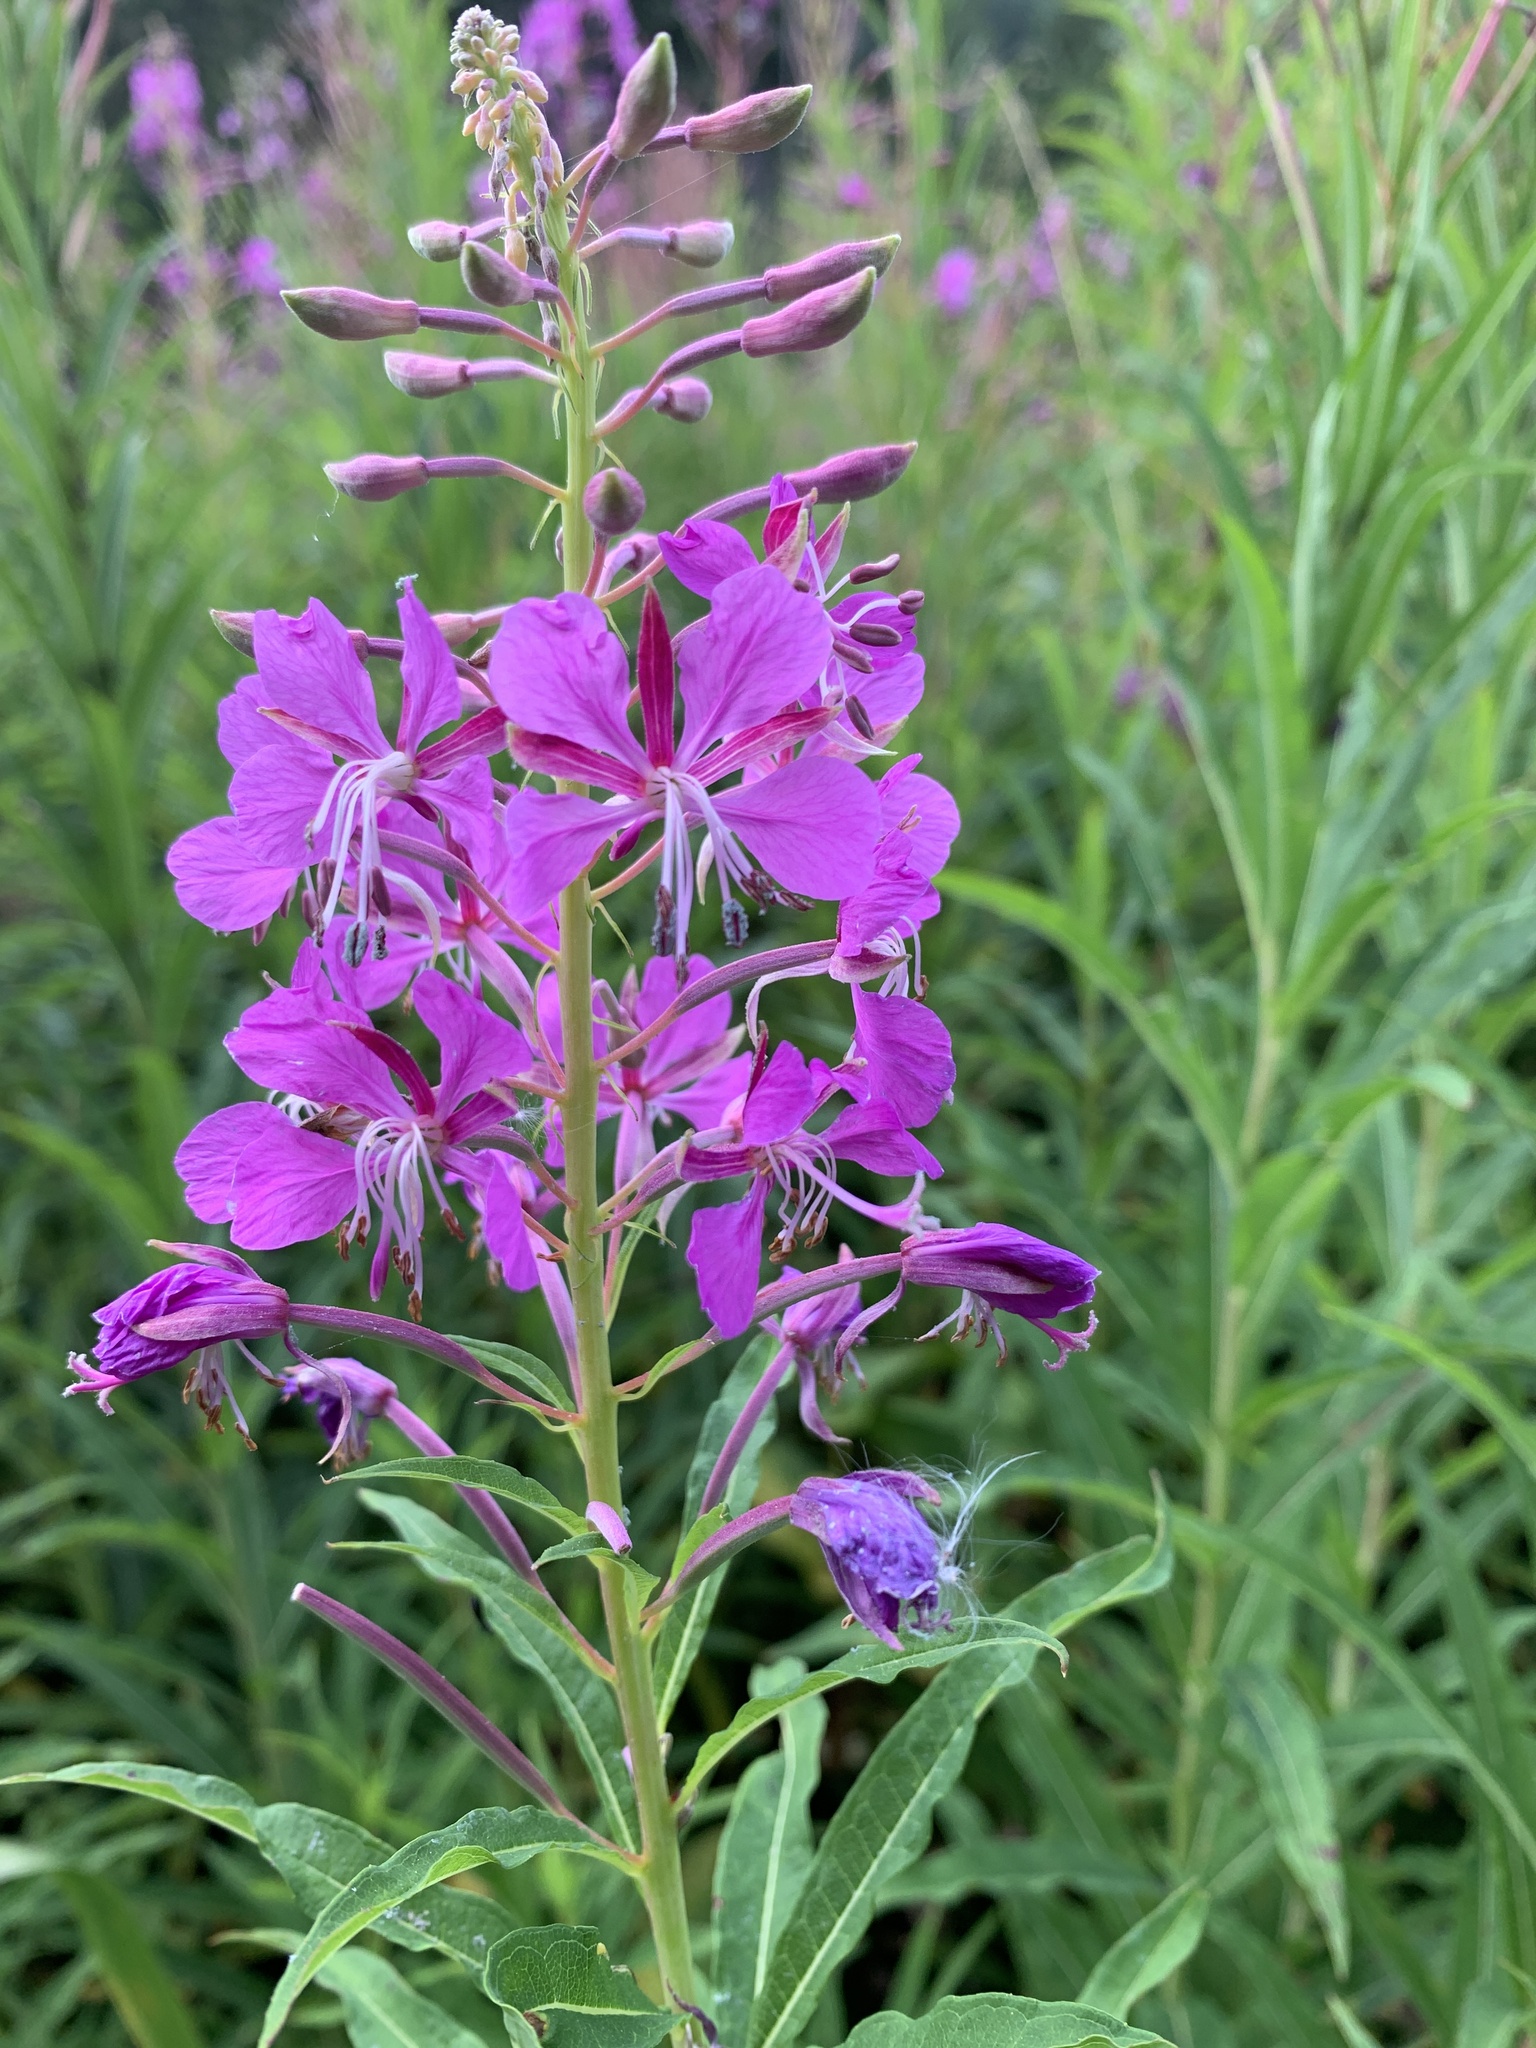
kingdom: Plantae
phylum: Tracheophyta
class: Magnoliopsida
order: Myrtales
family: Onagraceae
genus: Chamaenerion
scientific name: Chamaenerion angustifolium
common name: Fireweed
